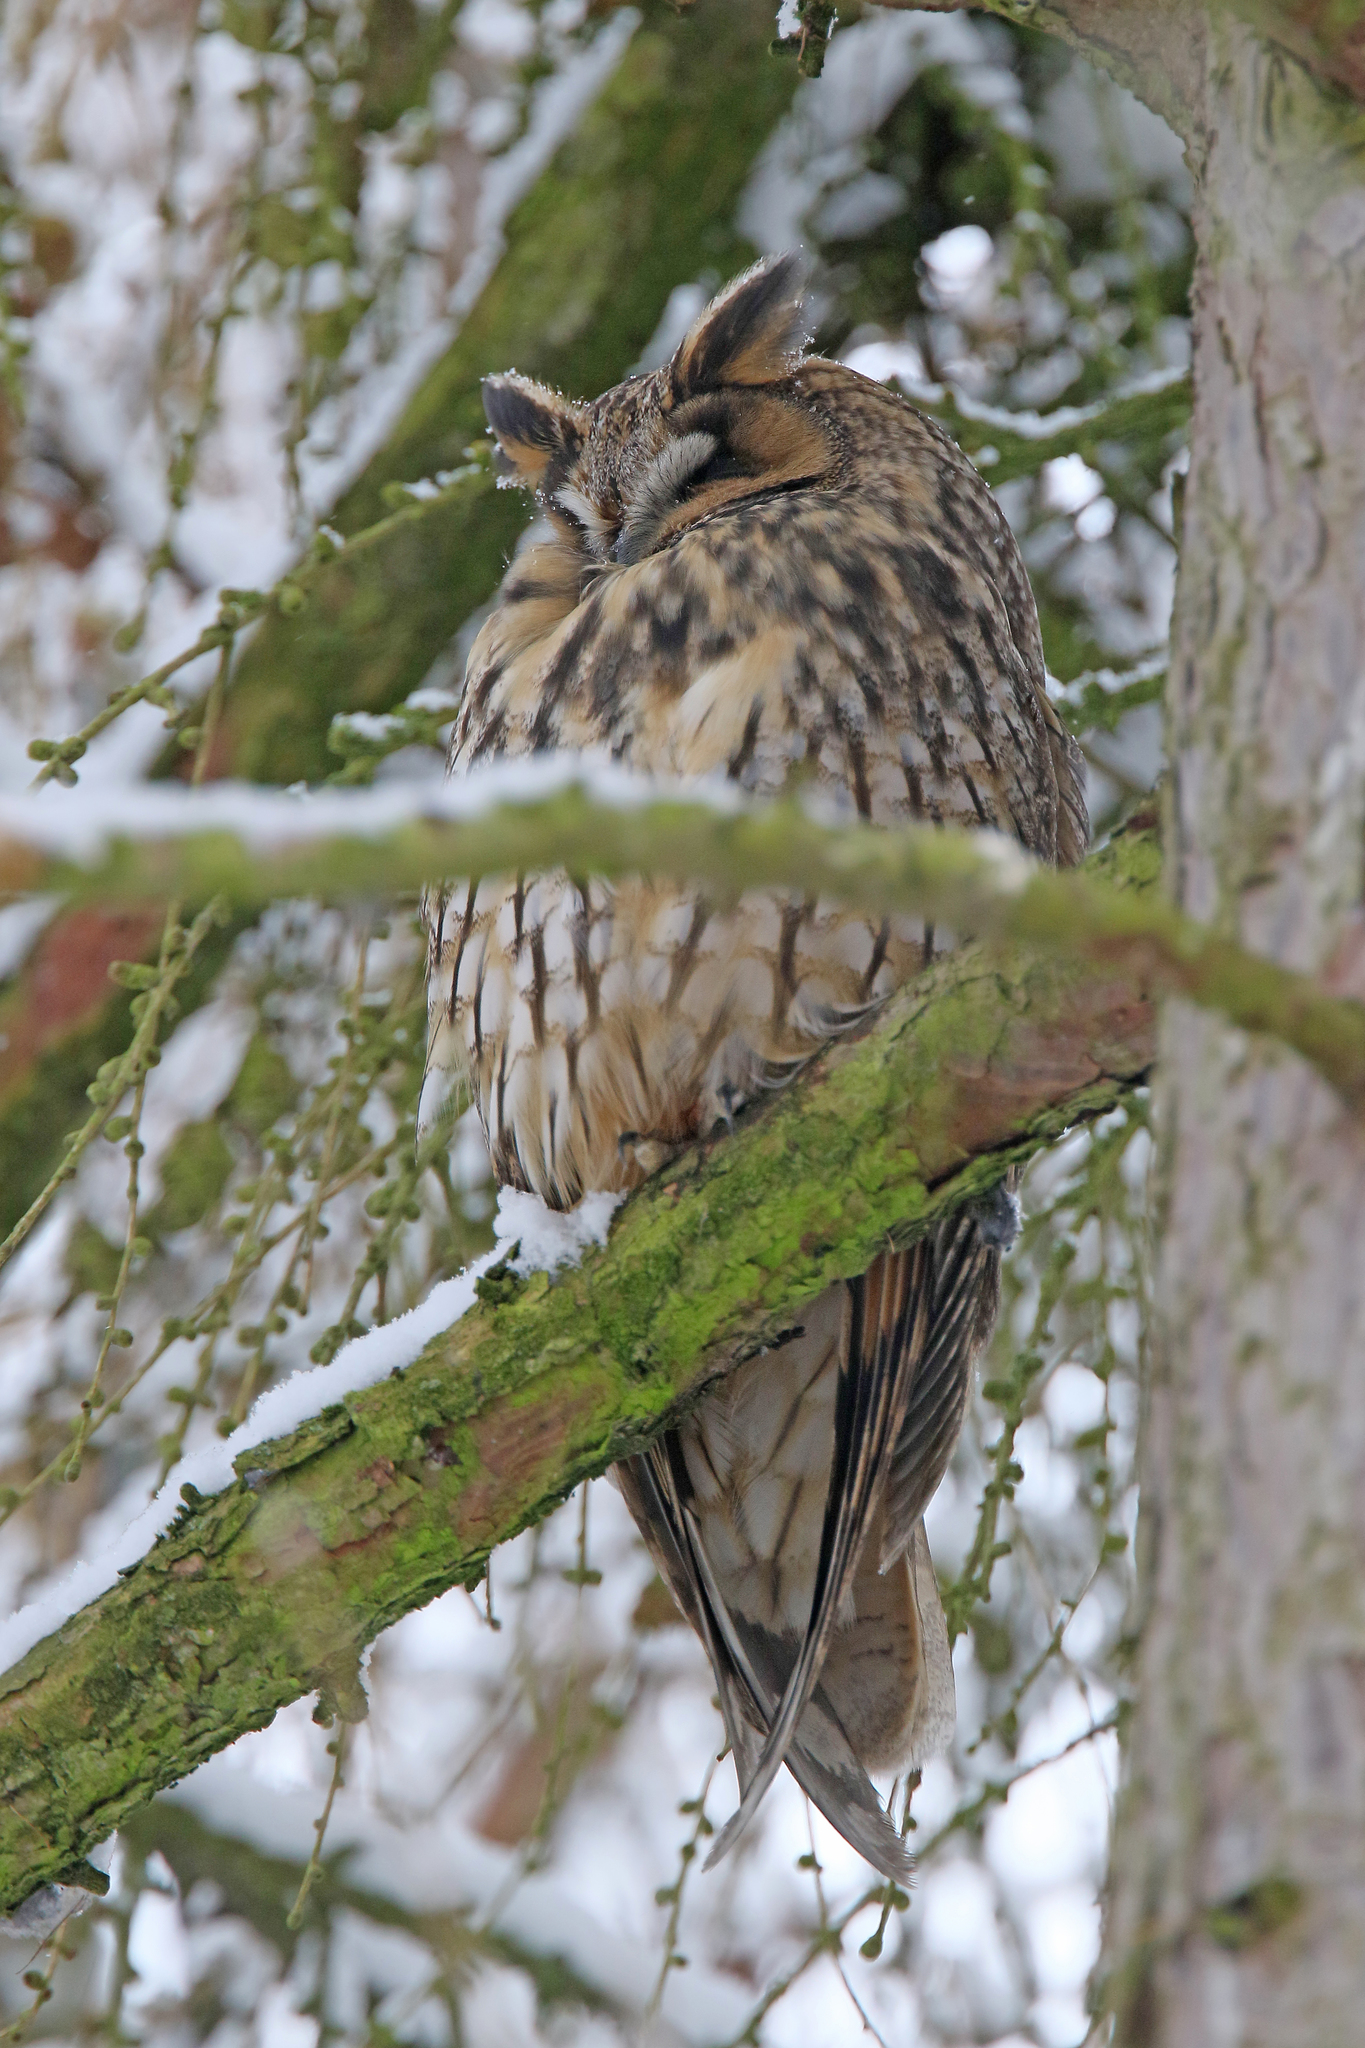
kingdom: Animalia
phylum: Chordata
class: Aves
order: Strigiformes
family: Strigidae
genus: Asio
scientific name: Asio otus
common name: Long-eared owl
